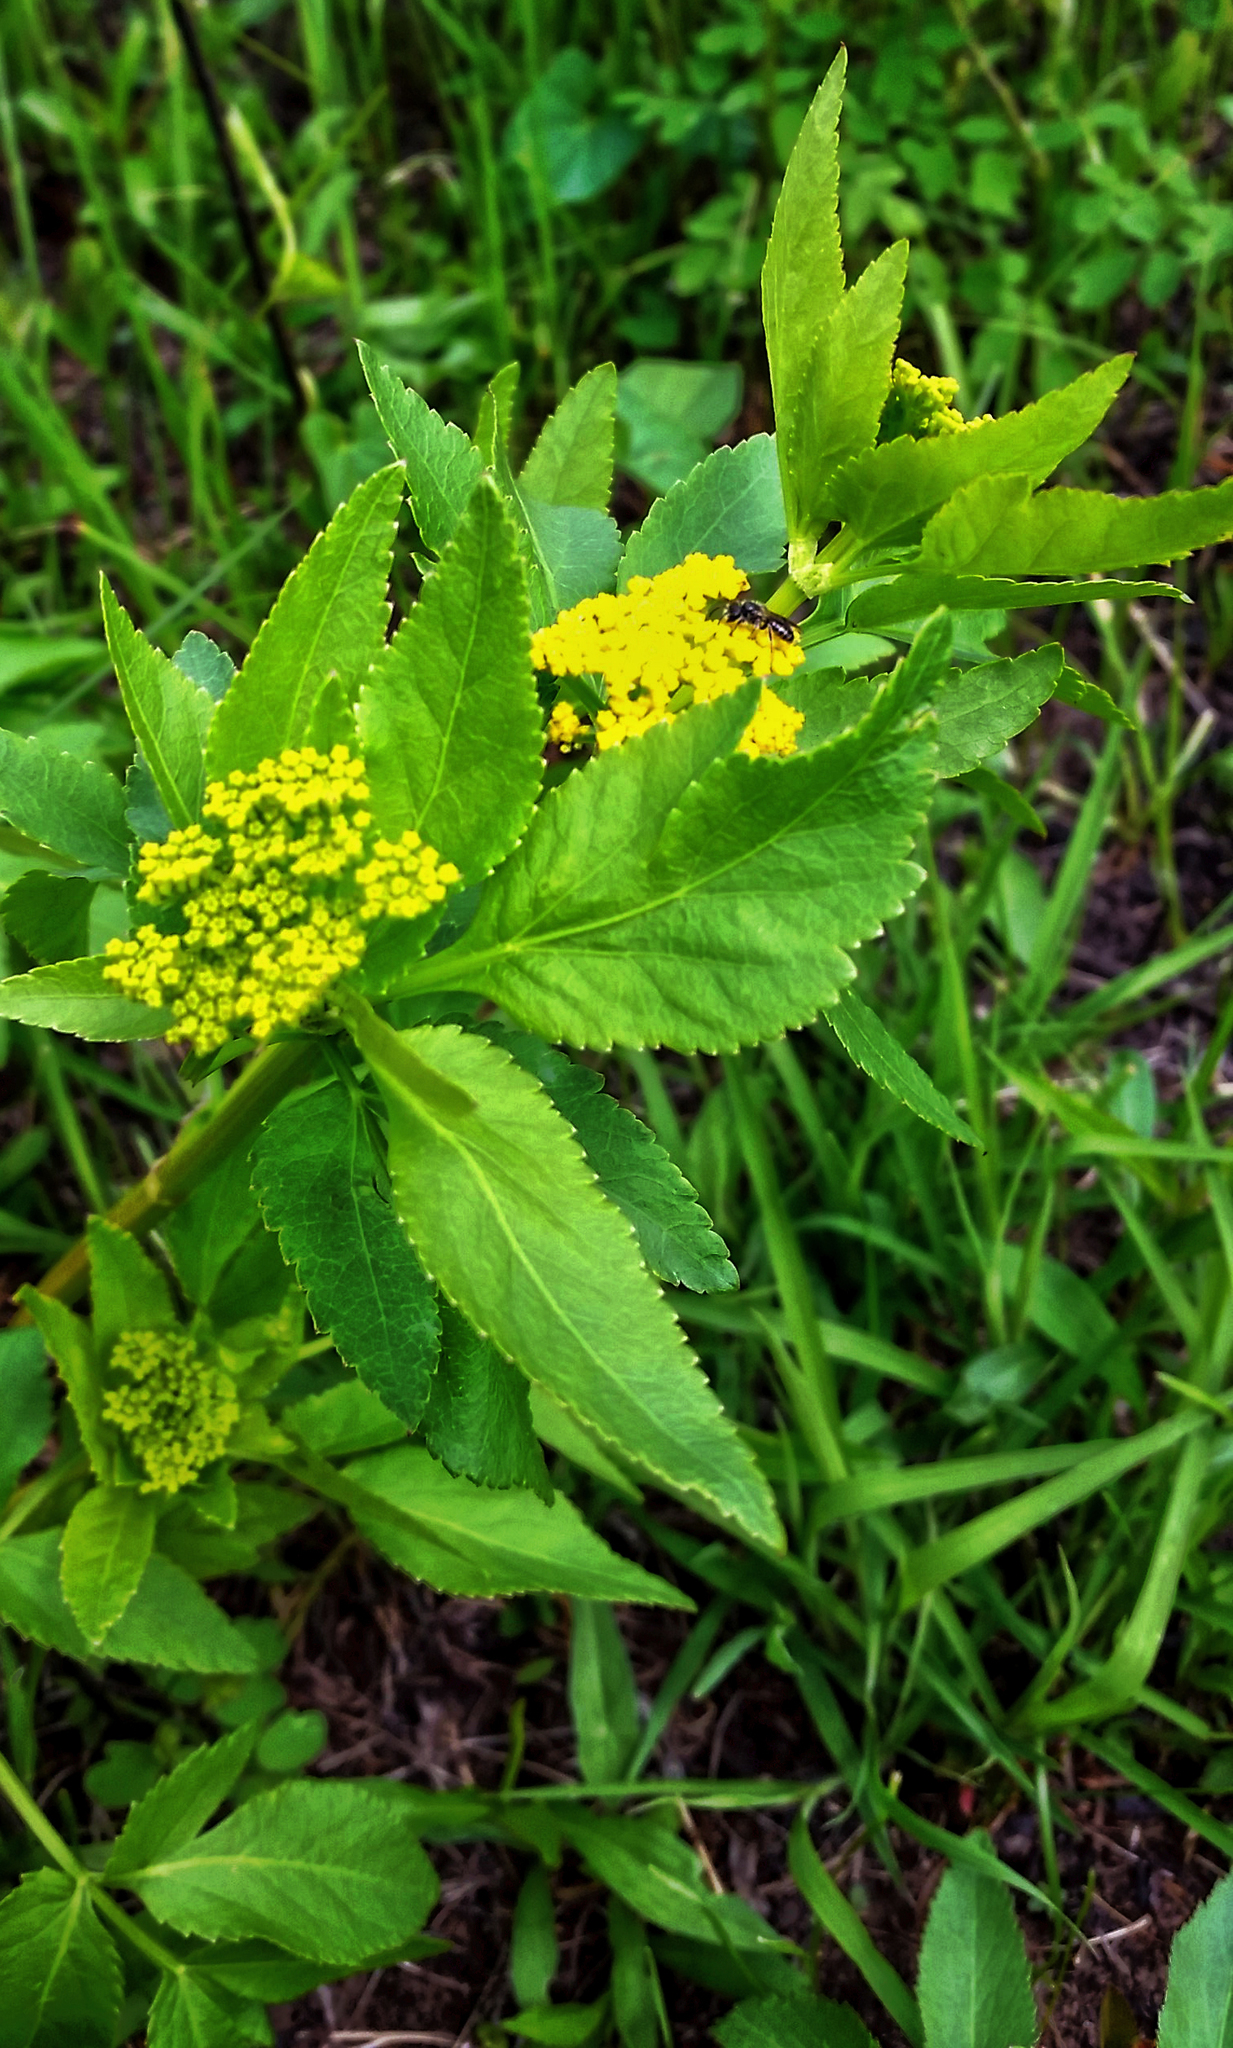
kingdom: Plantae
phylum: Tracheophyta
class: Magnoliopsida
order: Apiales
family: Apiaceae
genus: Zizia
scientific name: Zizia aurea
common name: Golden alexanders
